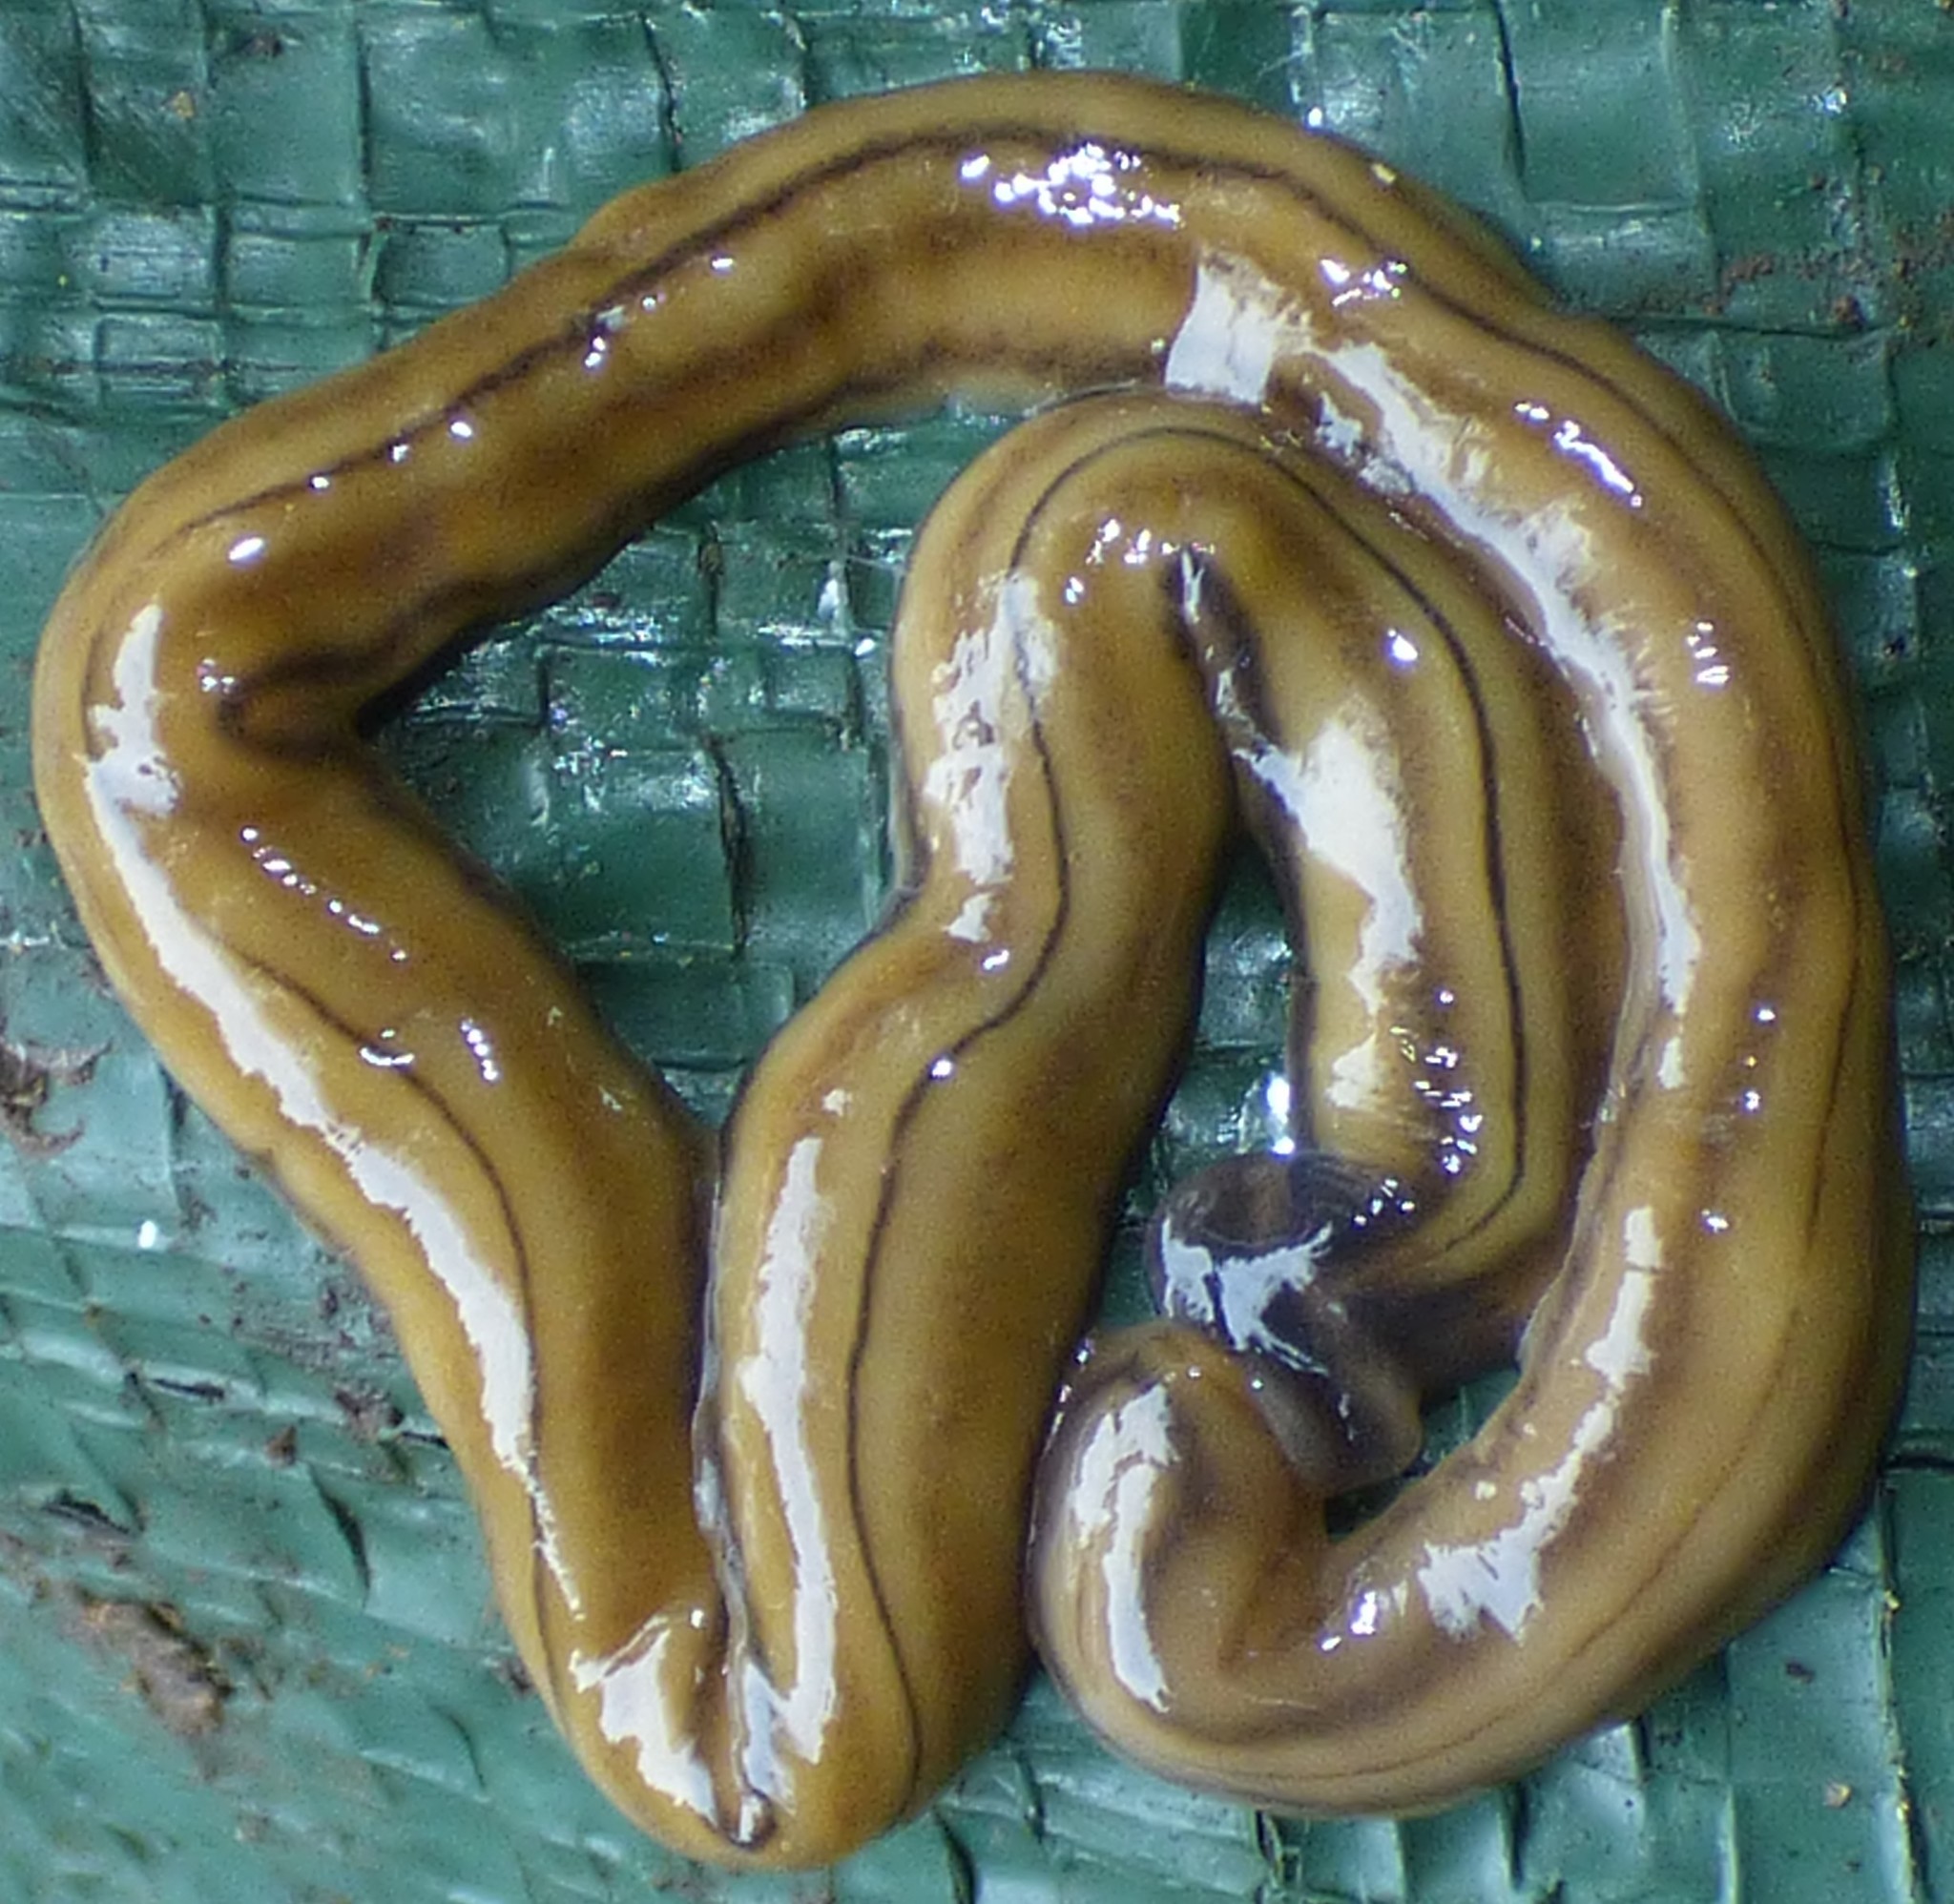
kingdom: Animalia
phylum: Platyhelminthes
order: Tricladida
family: Geoplanidae
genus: Bipalium
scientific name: Bipalium kewense
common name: Hammerhead flatworm
